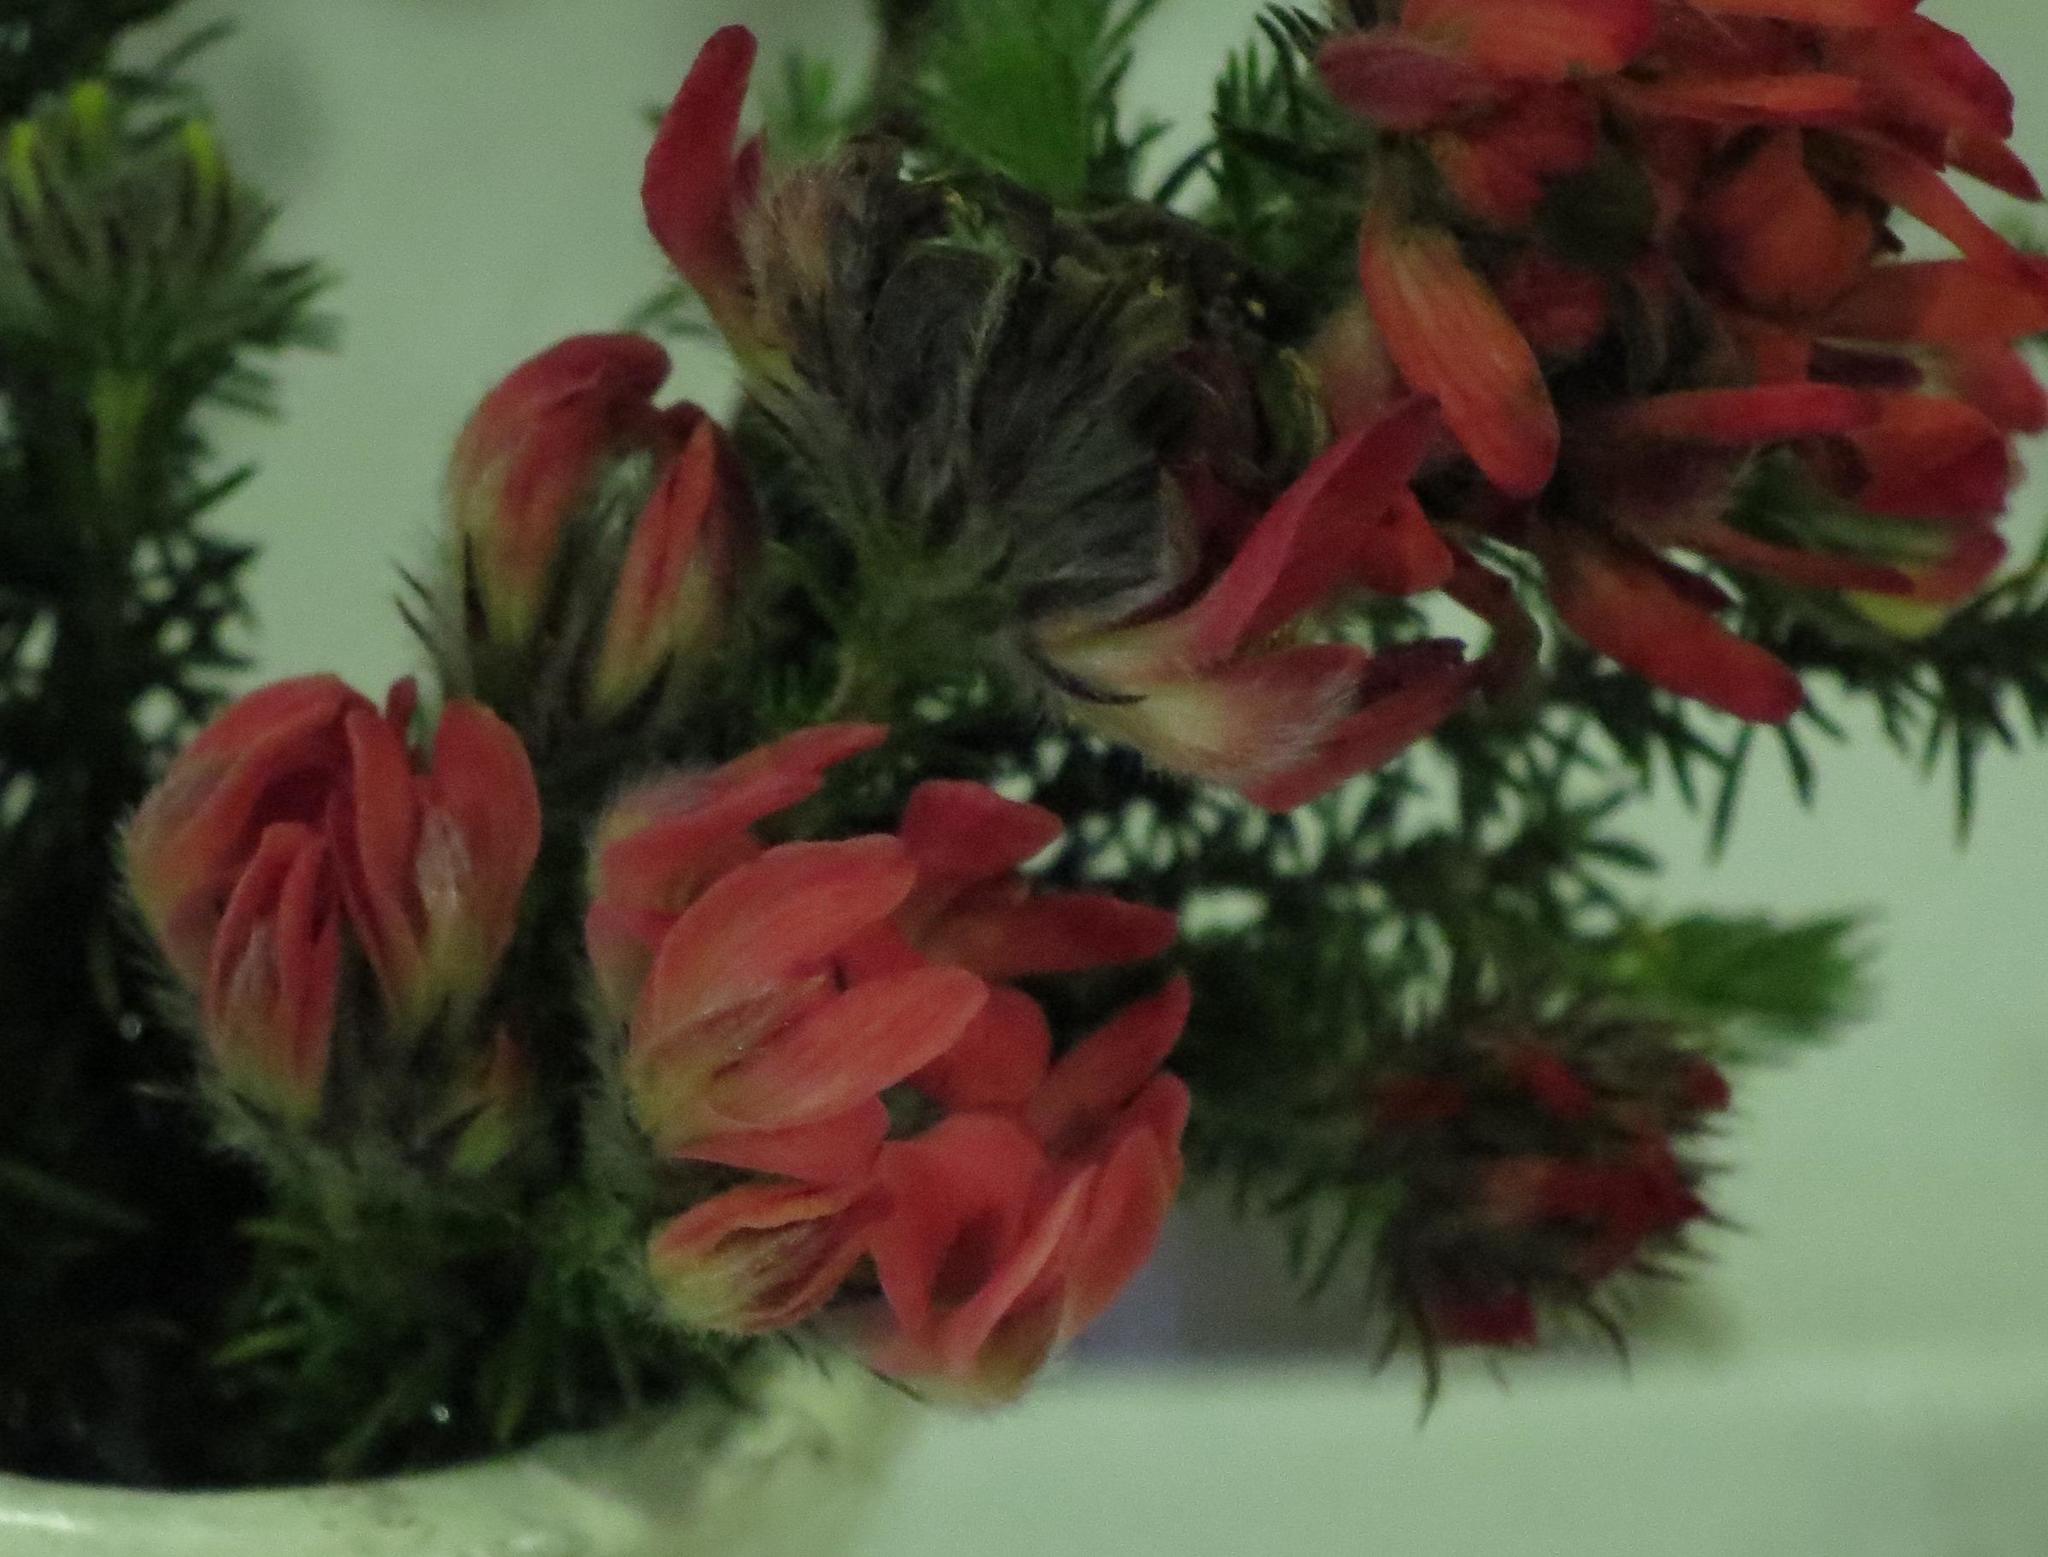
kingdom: Plantae
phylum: Tracheophyta
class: Magnoliopsida
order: Fabales
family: Fabaceae
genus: Aspalathus
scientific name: Aspalathus rosea
